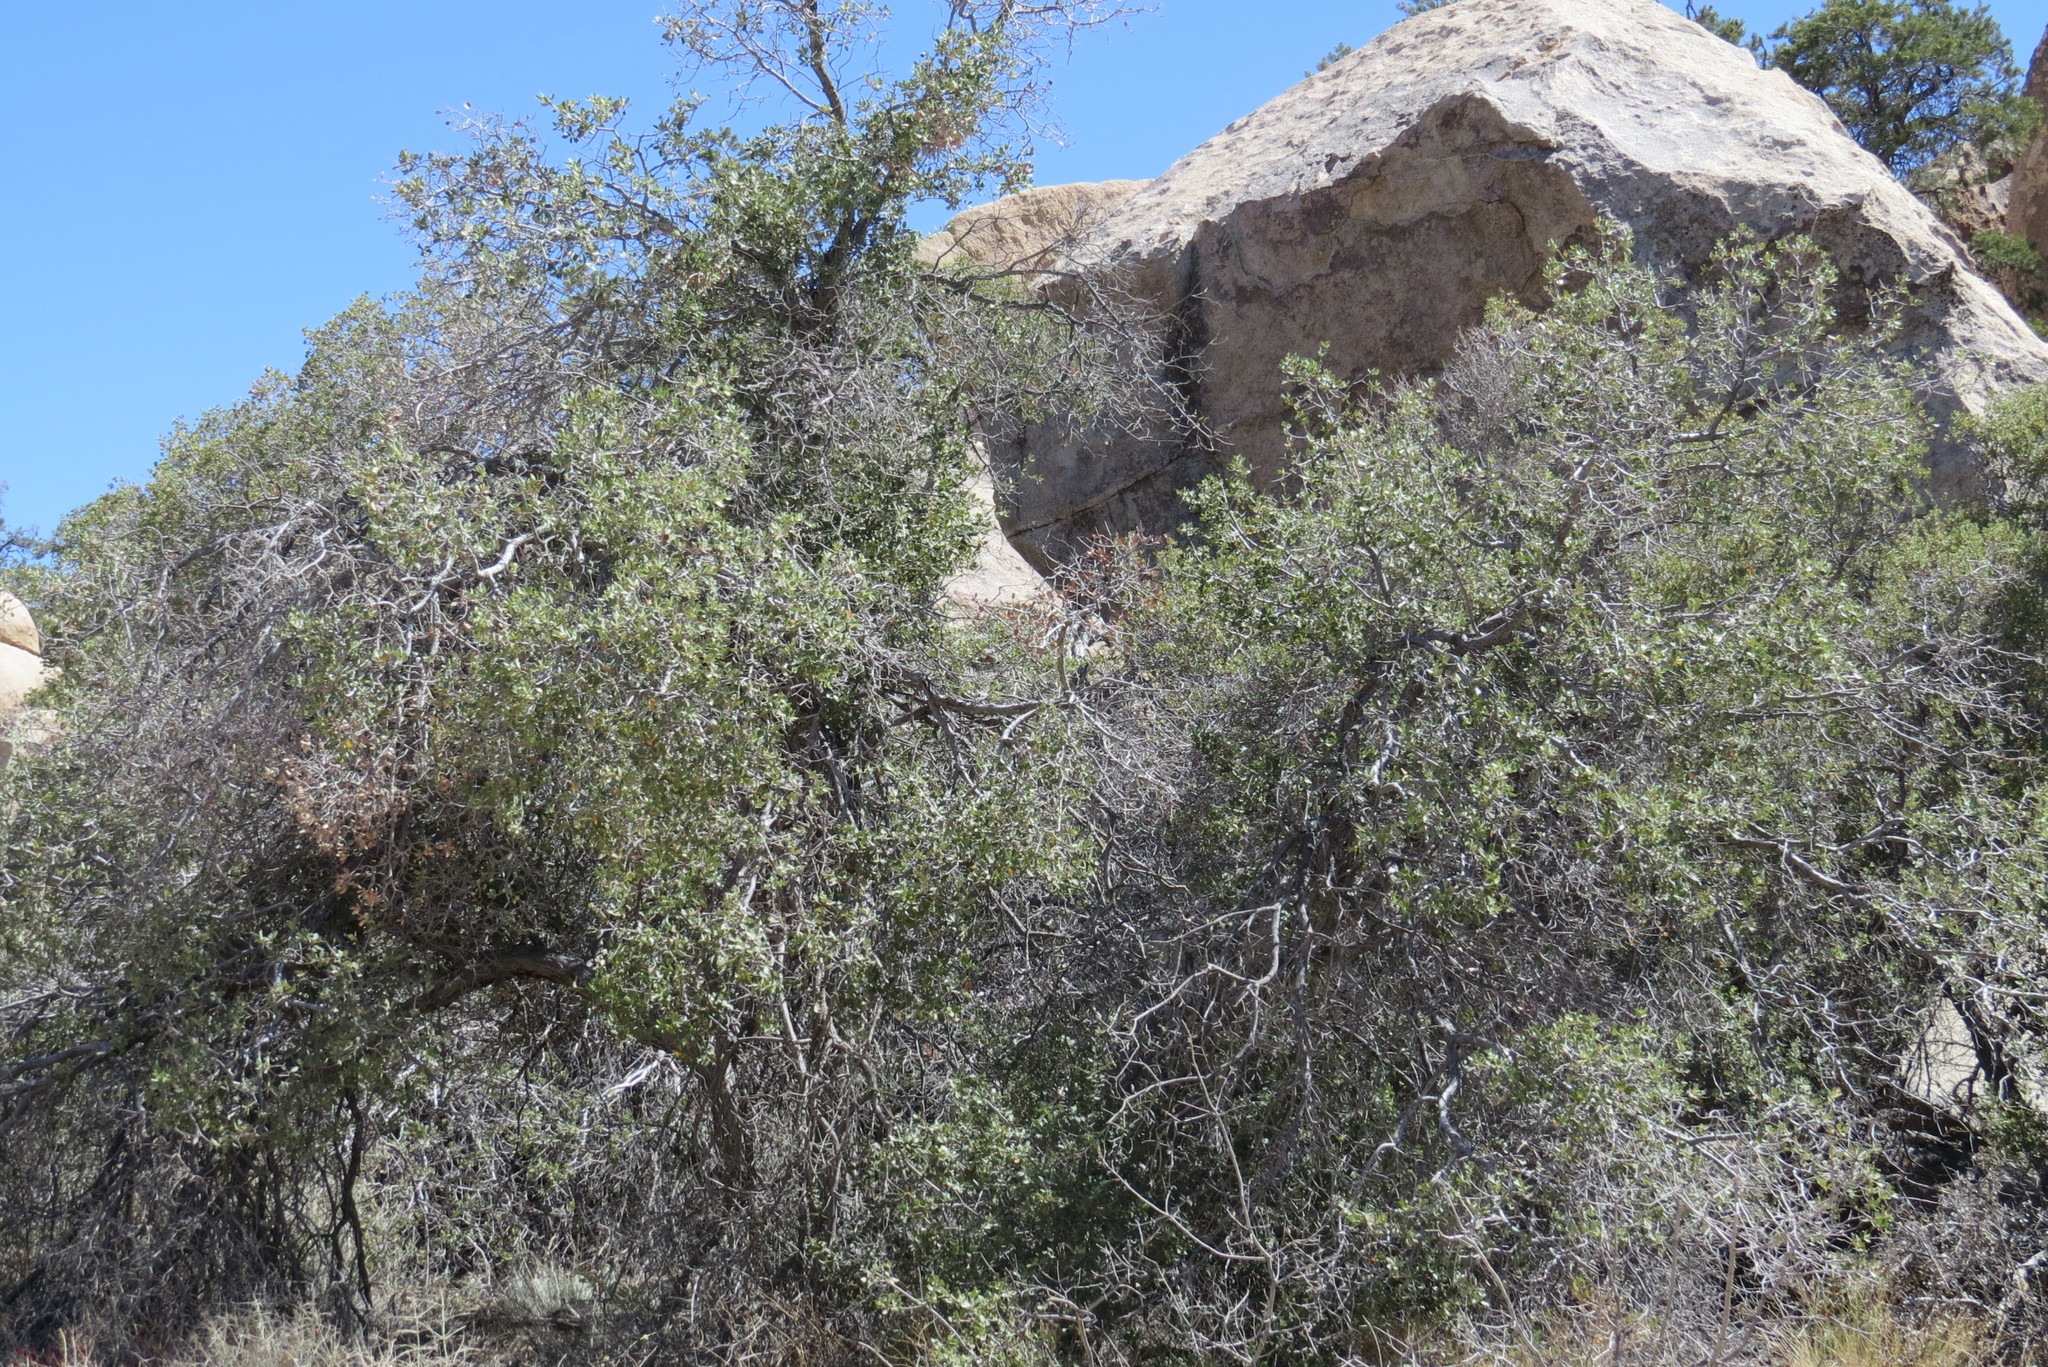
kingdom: Plantae
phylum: Tracheophyta
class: Magnoliopsida
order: Fagales
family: Fagaceae
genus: Quercus
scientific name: Quercus cornelius-mulleri
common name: Muller oak
